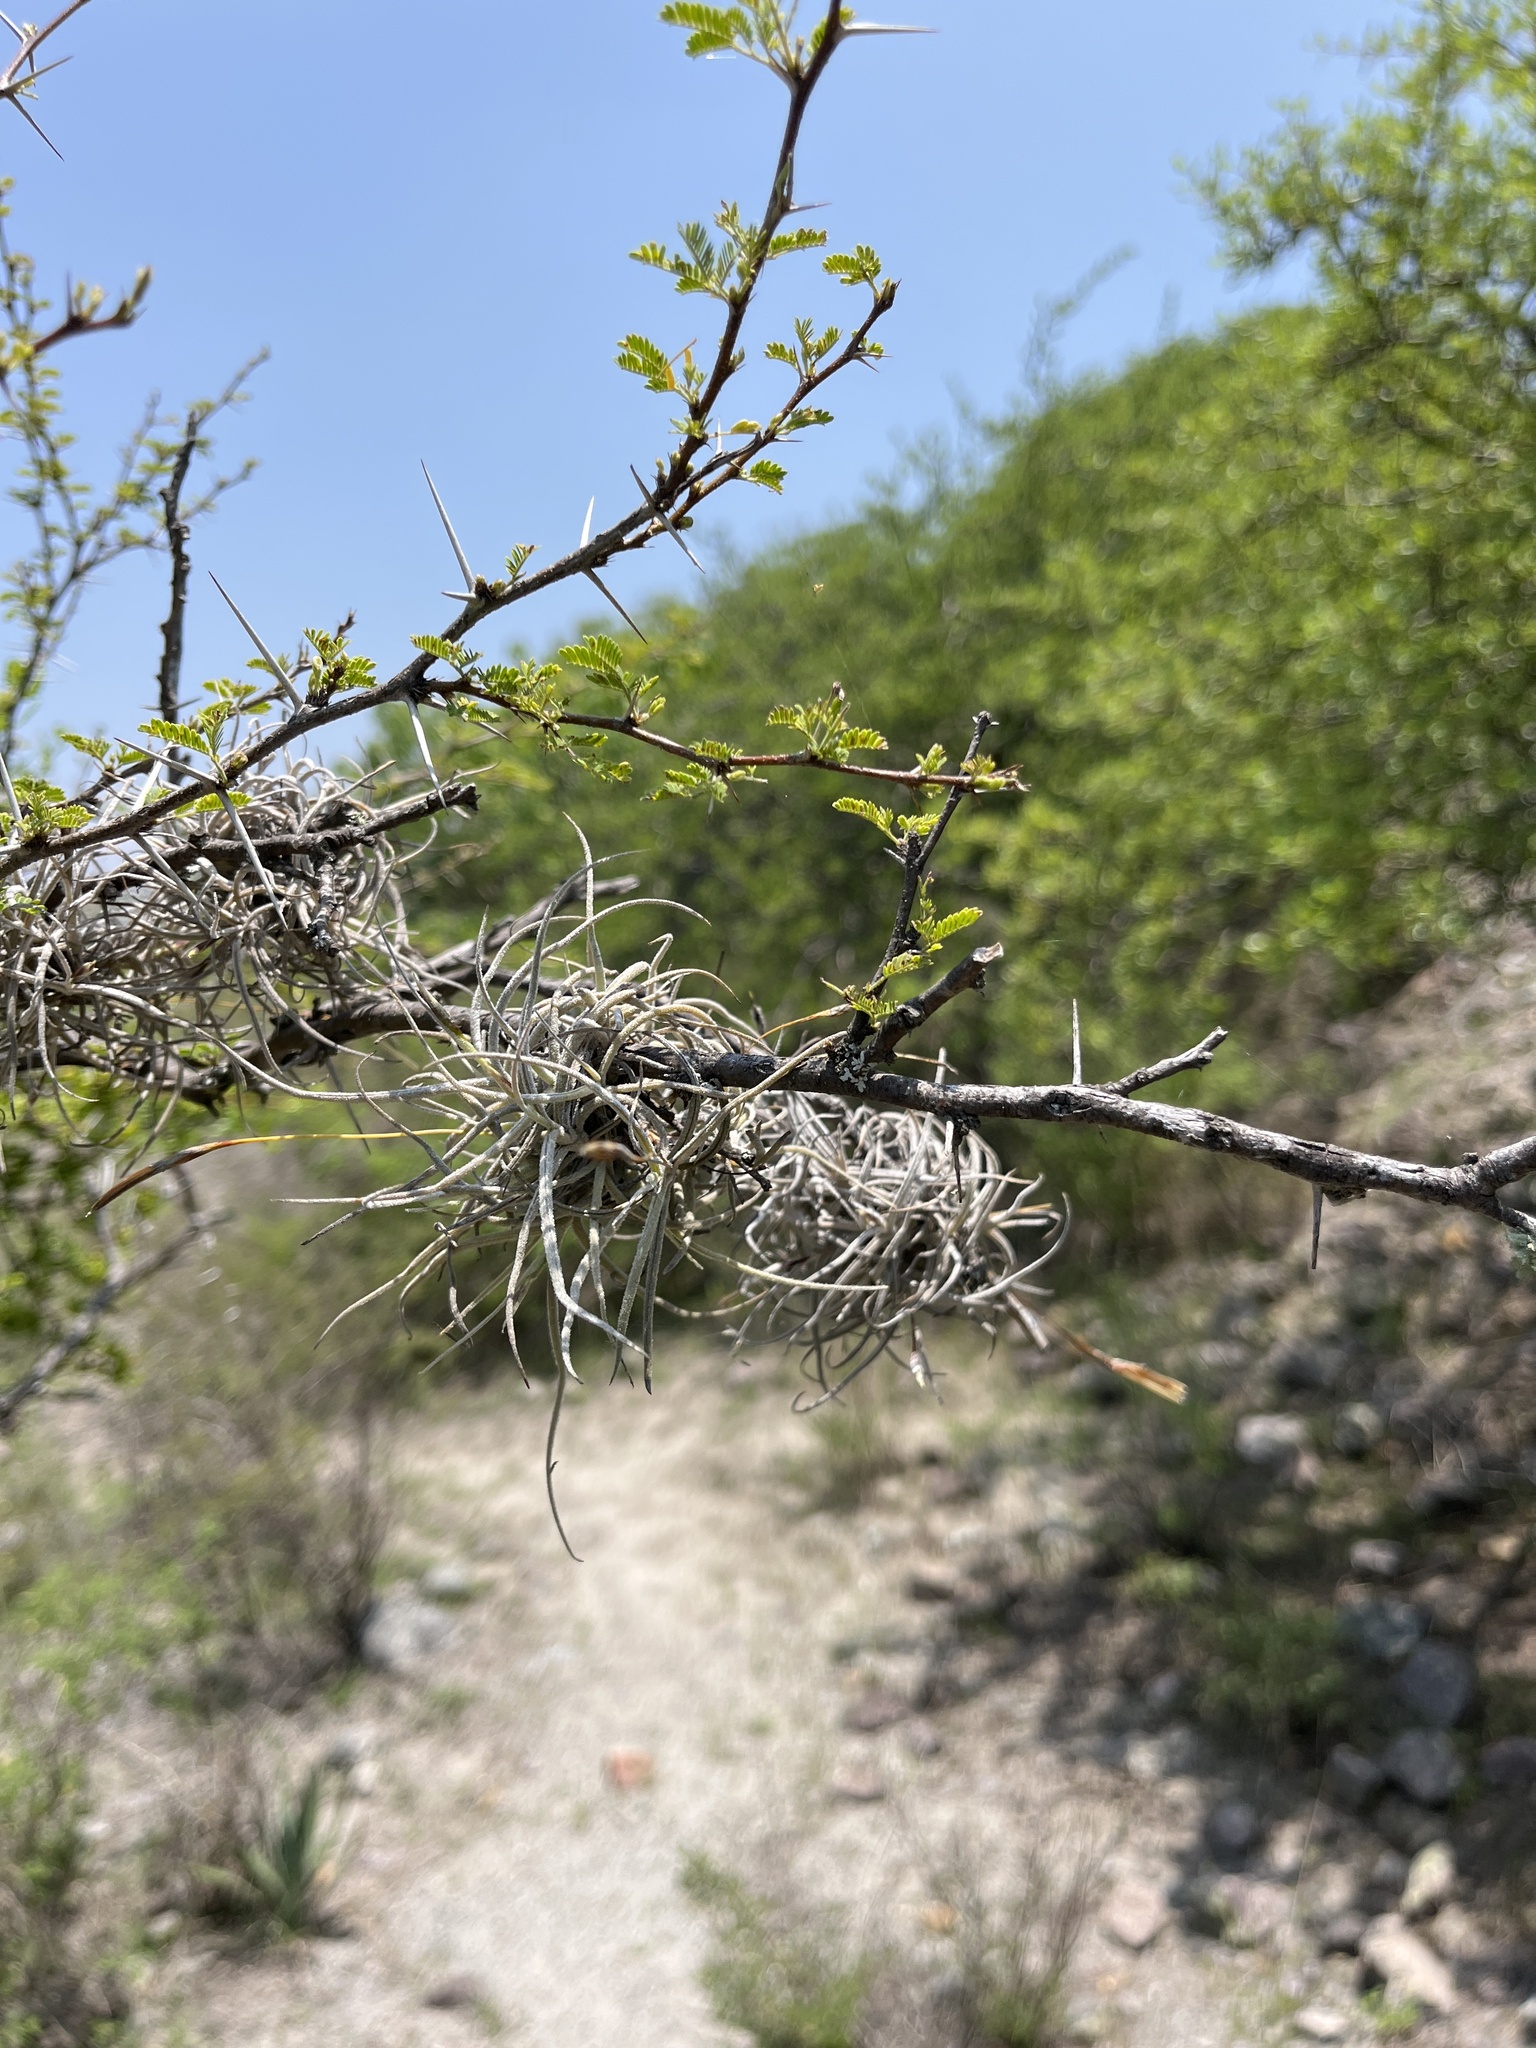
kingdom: Plantae
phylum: Tracheophyta
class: Liliopsida
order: Poales
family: Bromeliaceae
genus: Tillandsia
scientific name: Tillandsia recurvata
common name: Small ballmoss
